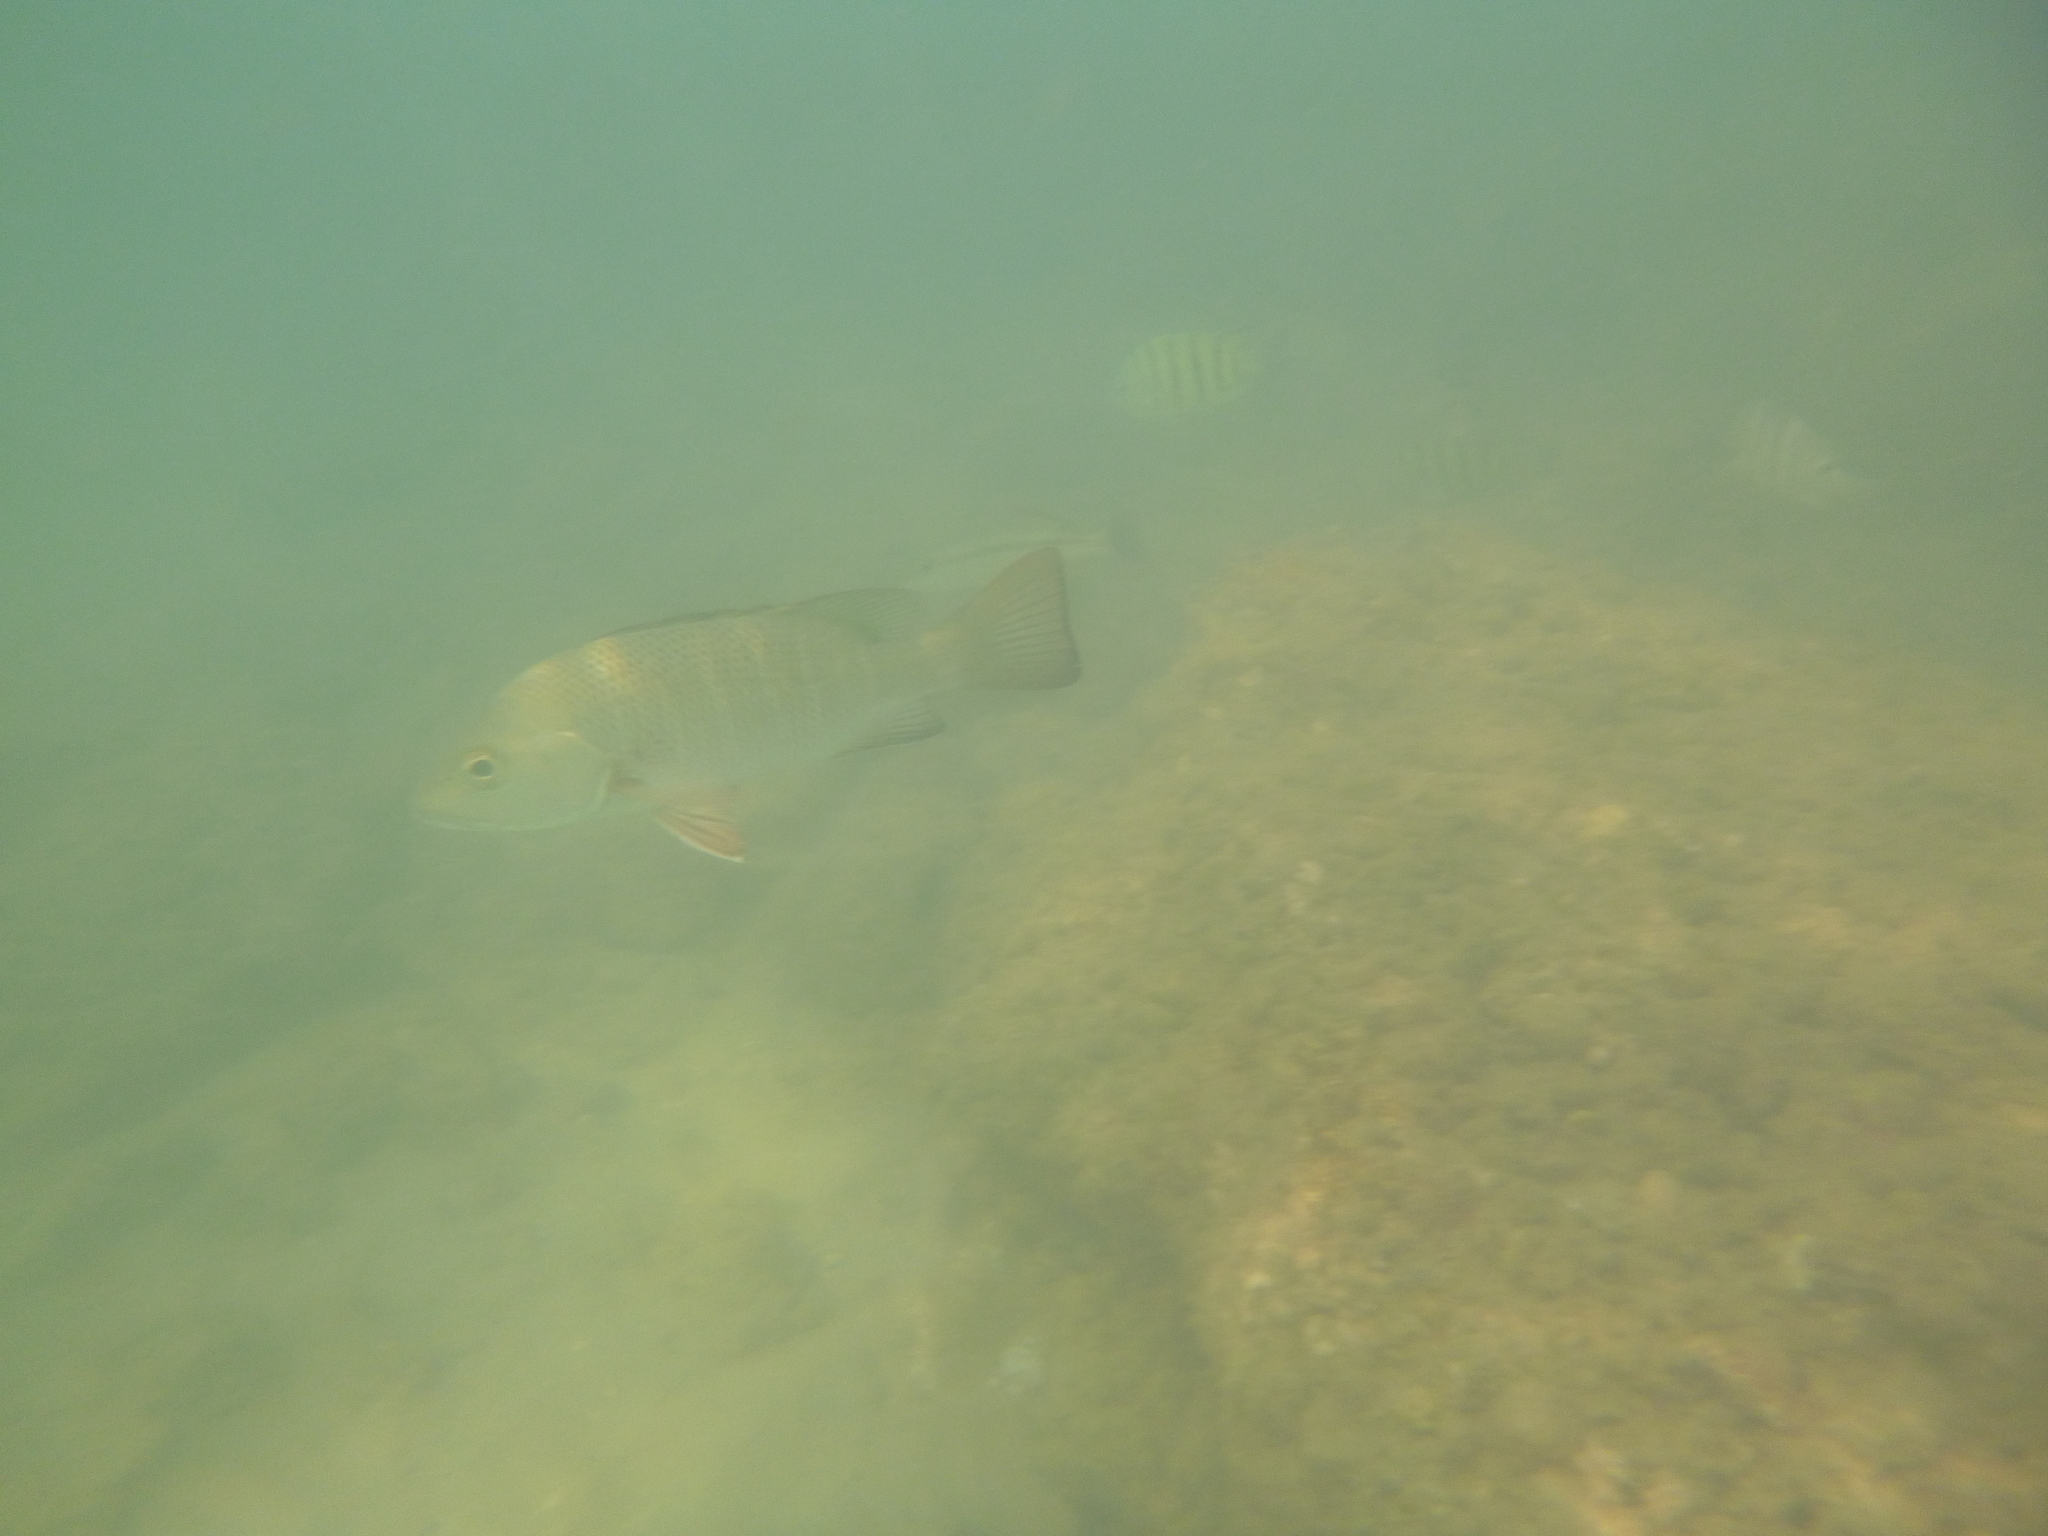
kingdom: Animalia
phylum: Chordata
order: Perciformes
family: Lutjanidae
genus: Lutjanus
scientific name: Lutjanus argentimaculatus
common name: Mangrove red snapper
